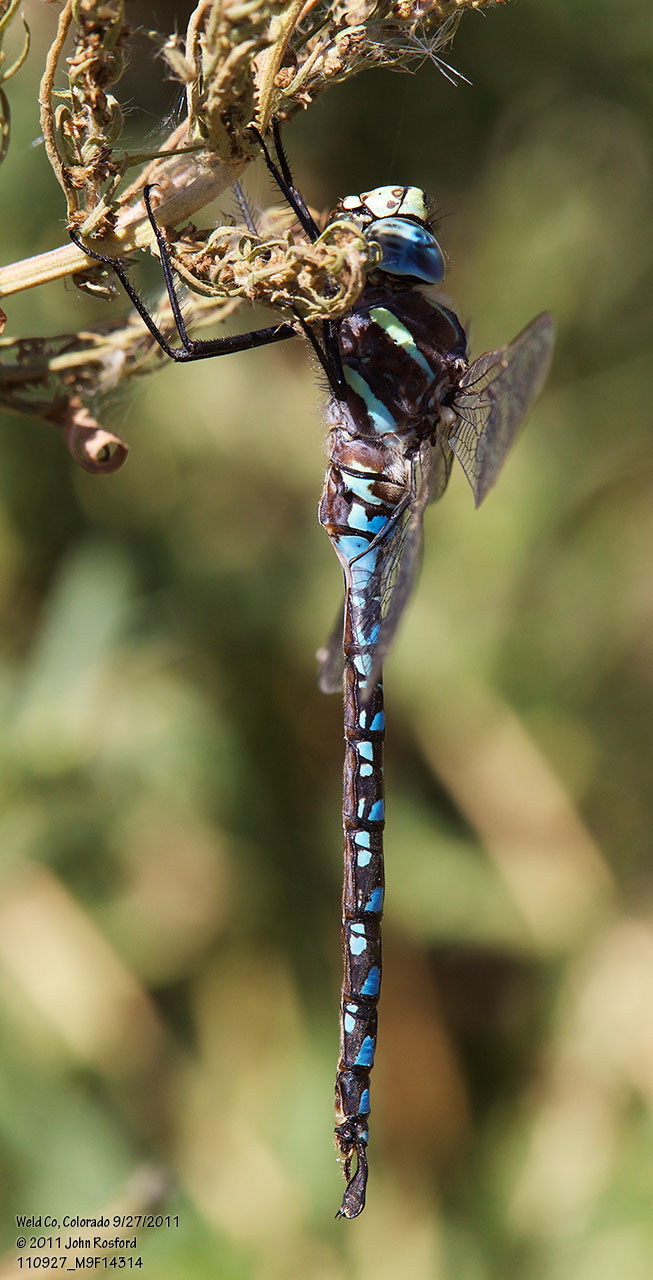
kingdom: Animalia
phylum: Arthropoda
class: Insecta
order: Odonata
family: Aeshnidae
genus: Aeshna
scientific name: Aeshna palmata
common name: Paddle-tailed darner
